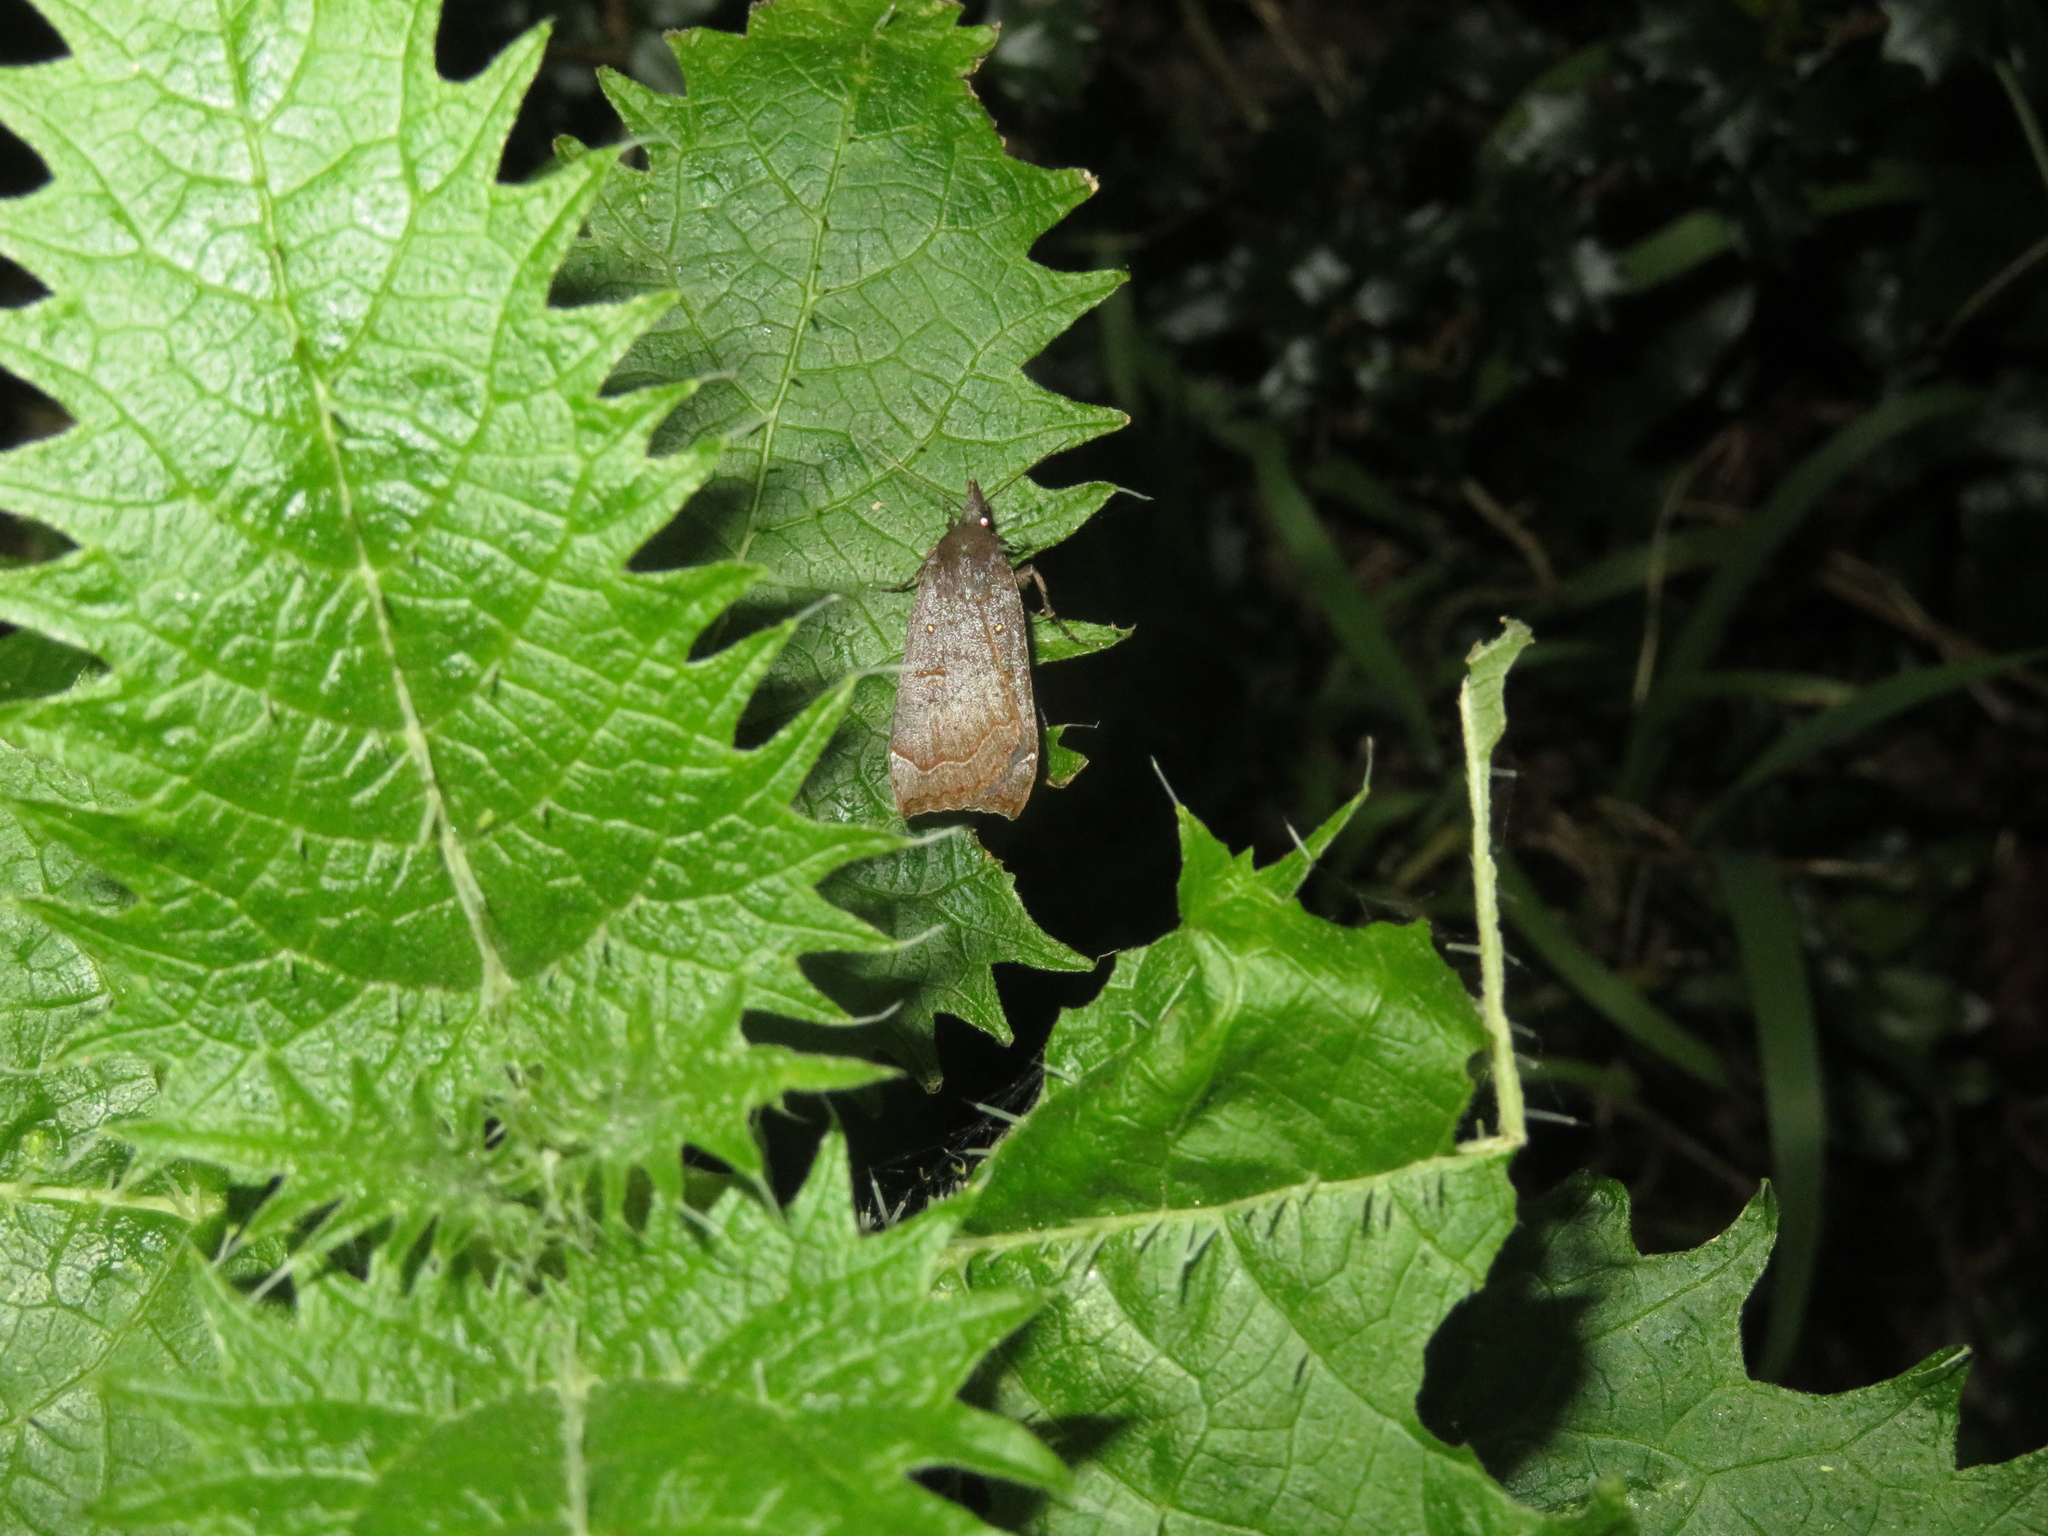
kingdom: Animalia
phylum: Arthropoda
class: Insecta
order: Lepidoptera
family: Erebidae
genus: Rhapsa
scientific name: Rhapsa scotosialis
